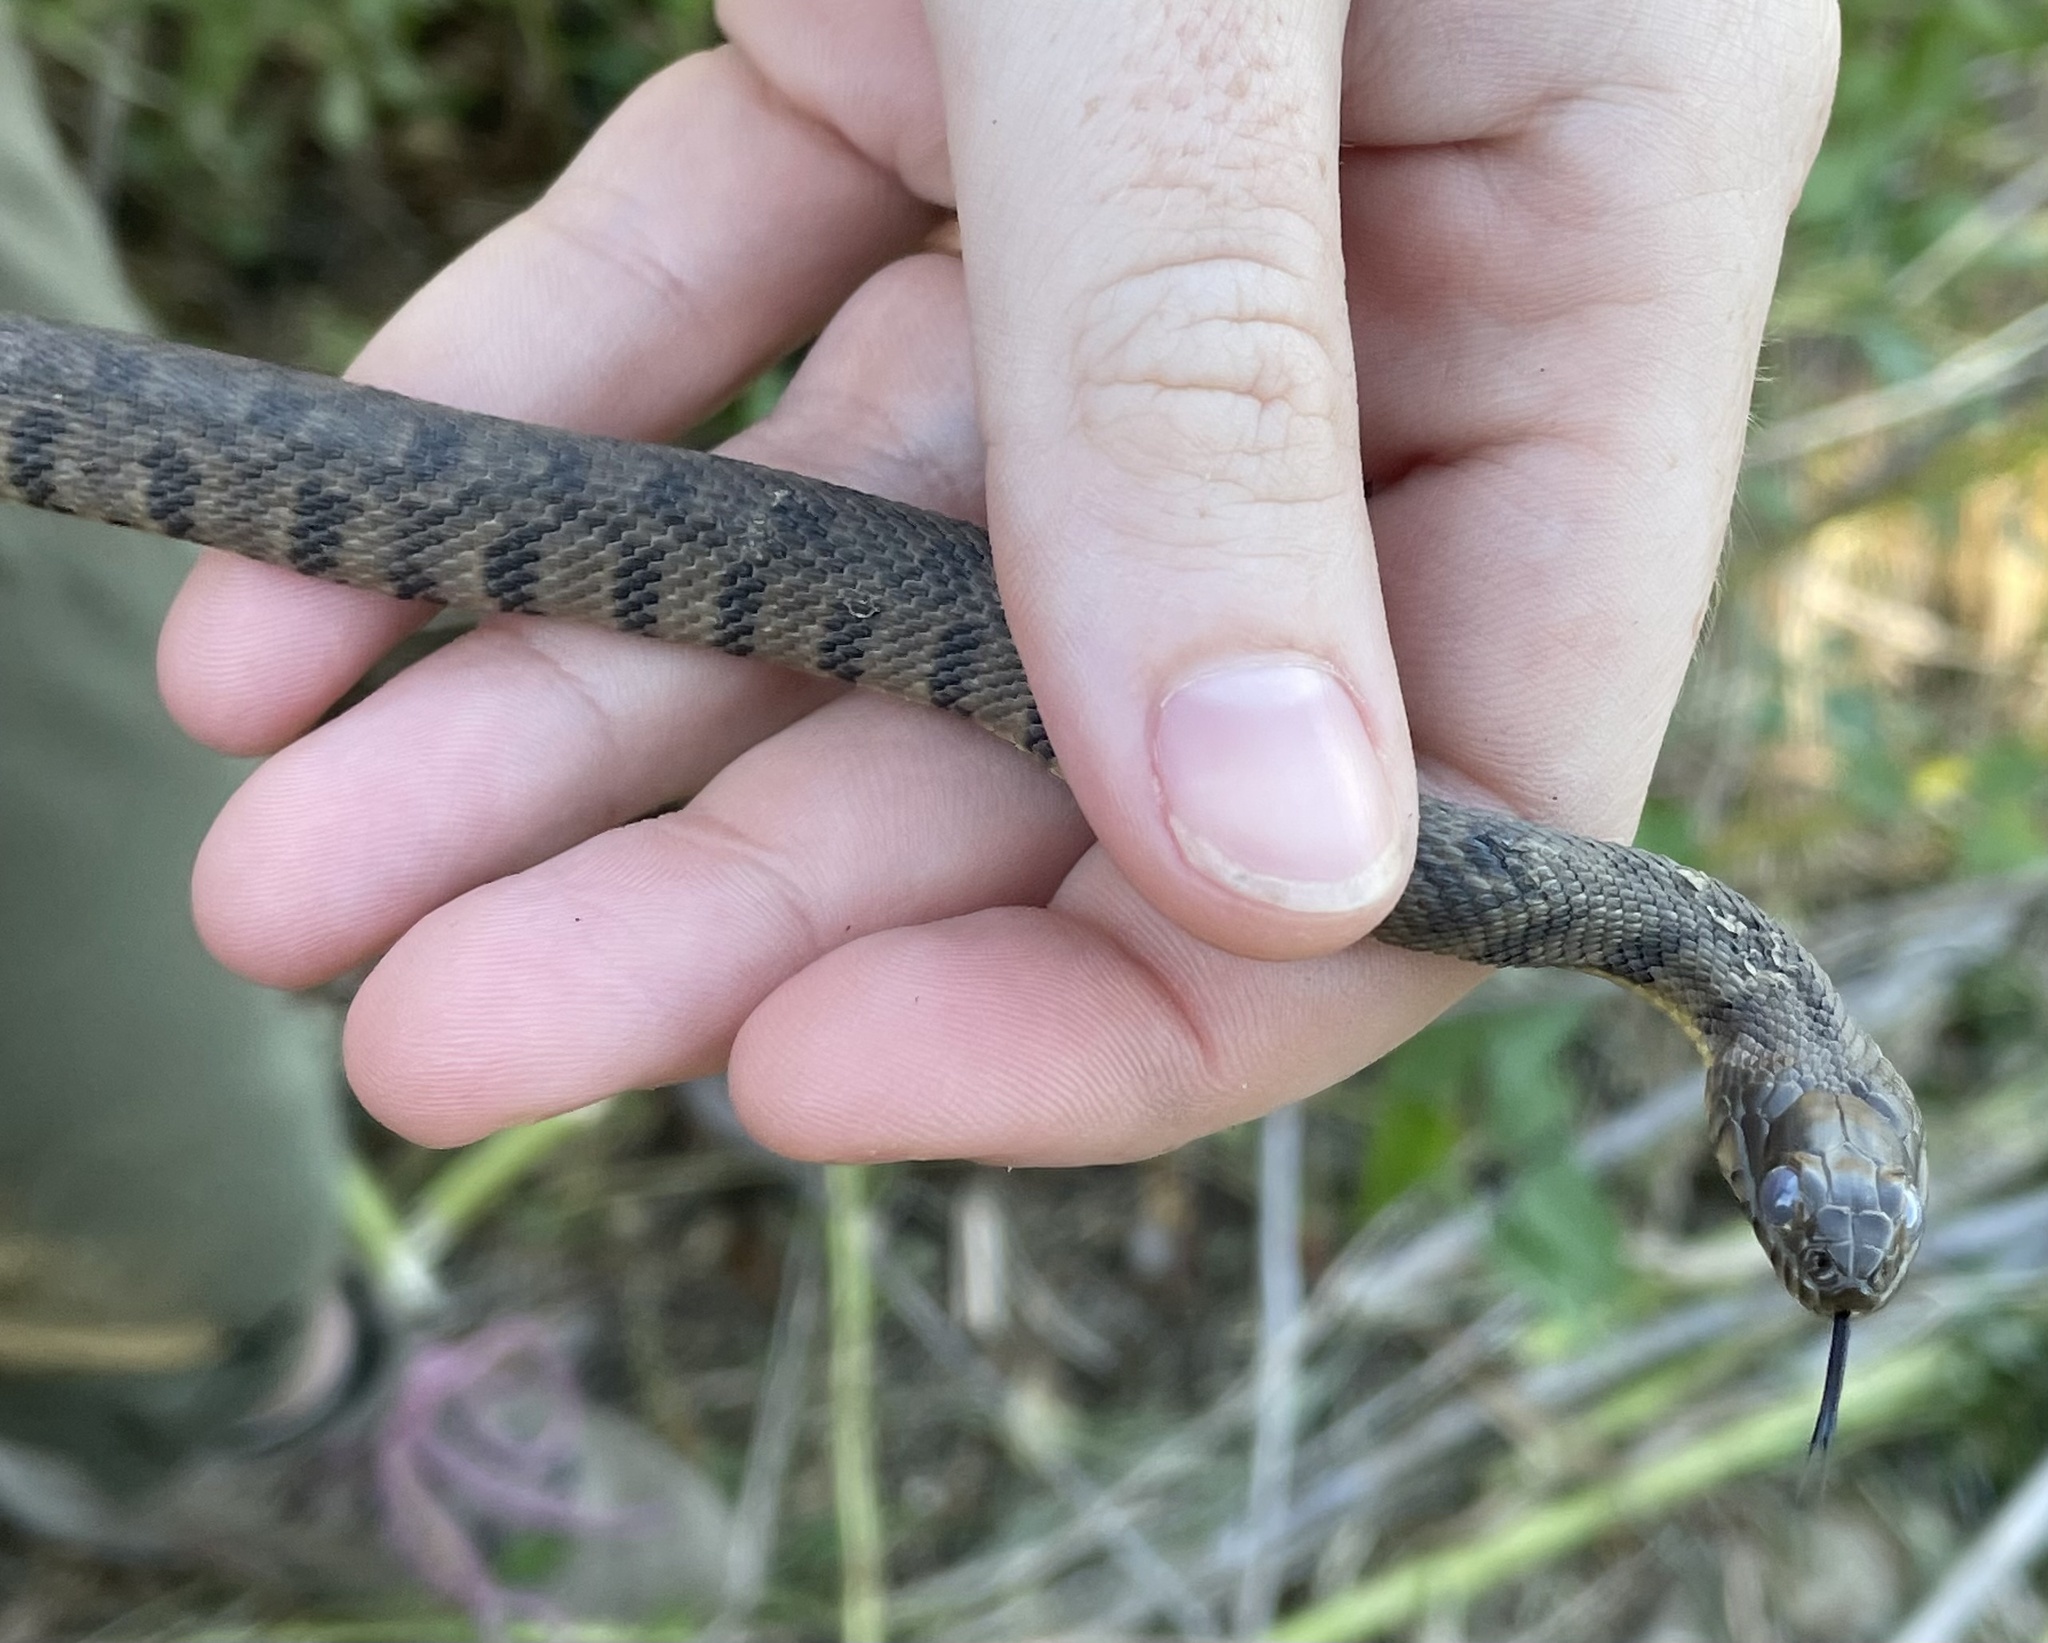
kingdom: Animalia
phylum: Chordata
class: Squamata
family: Colubridae
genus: Nerodia
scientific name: Nerodia rhombifer
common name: Diamondback water snake
